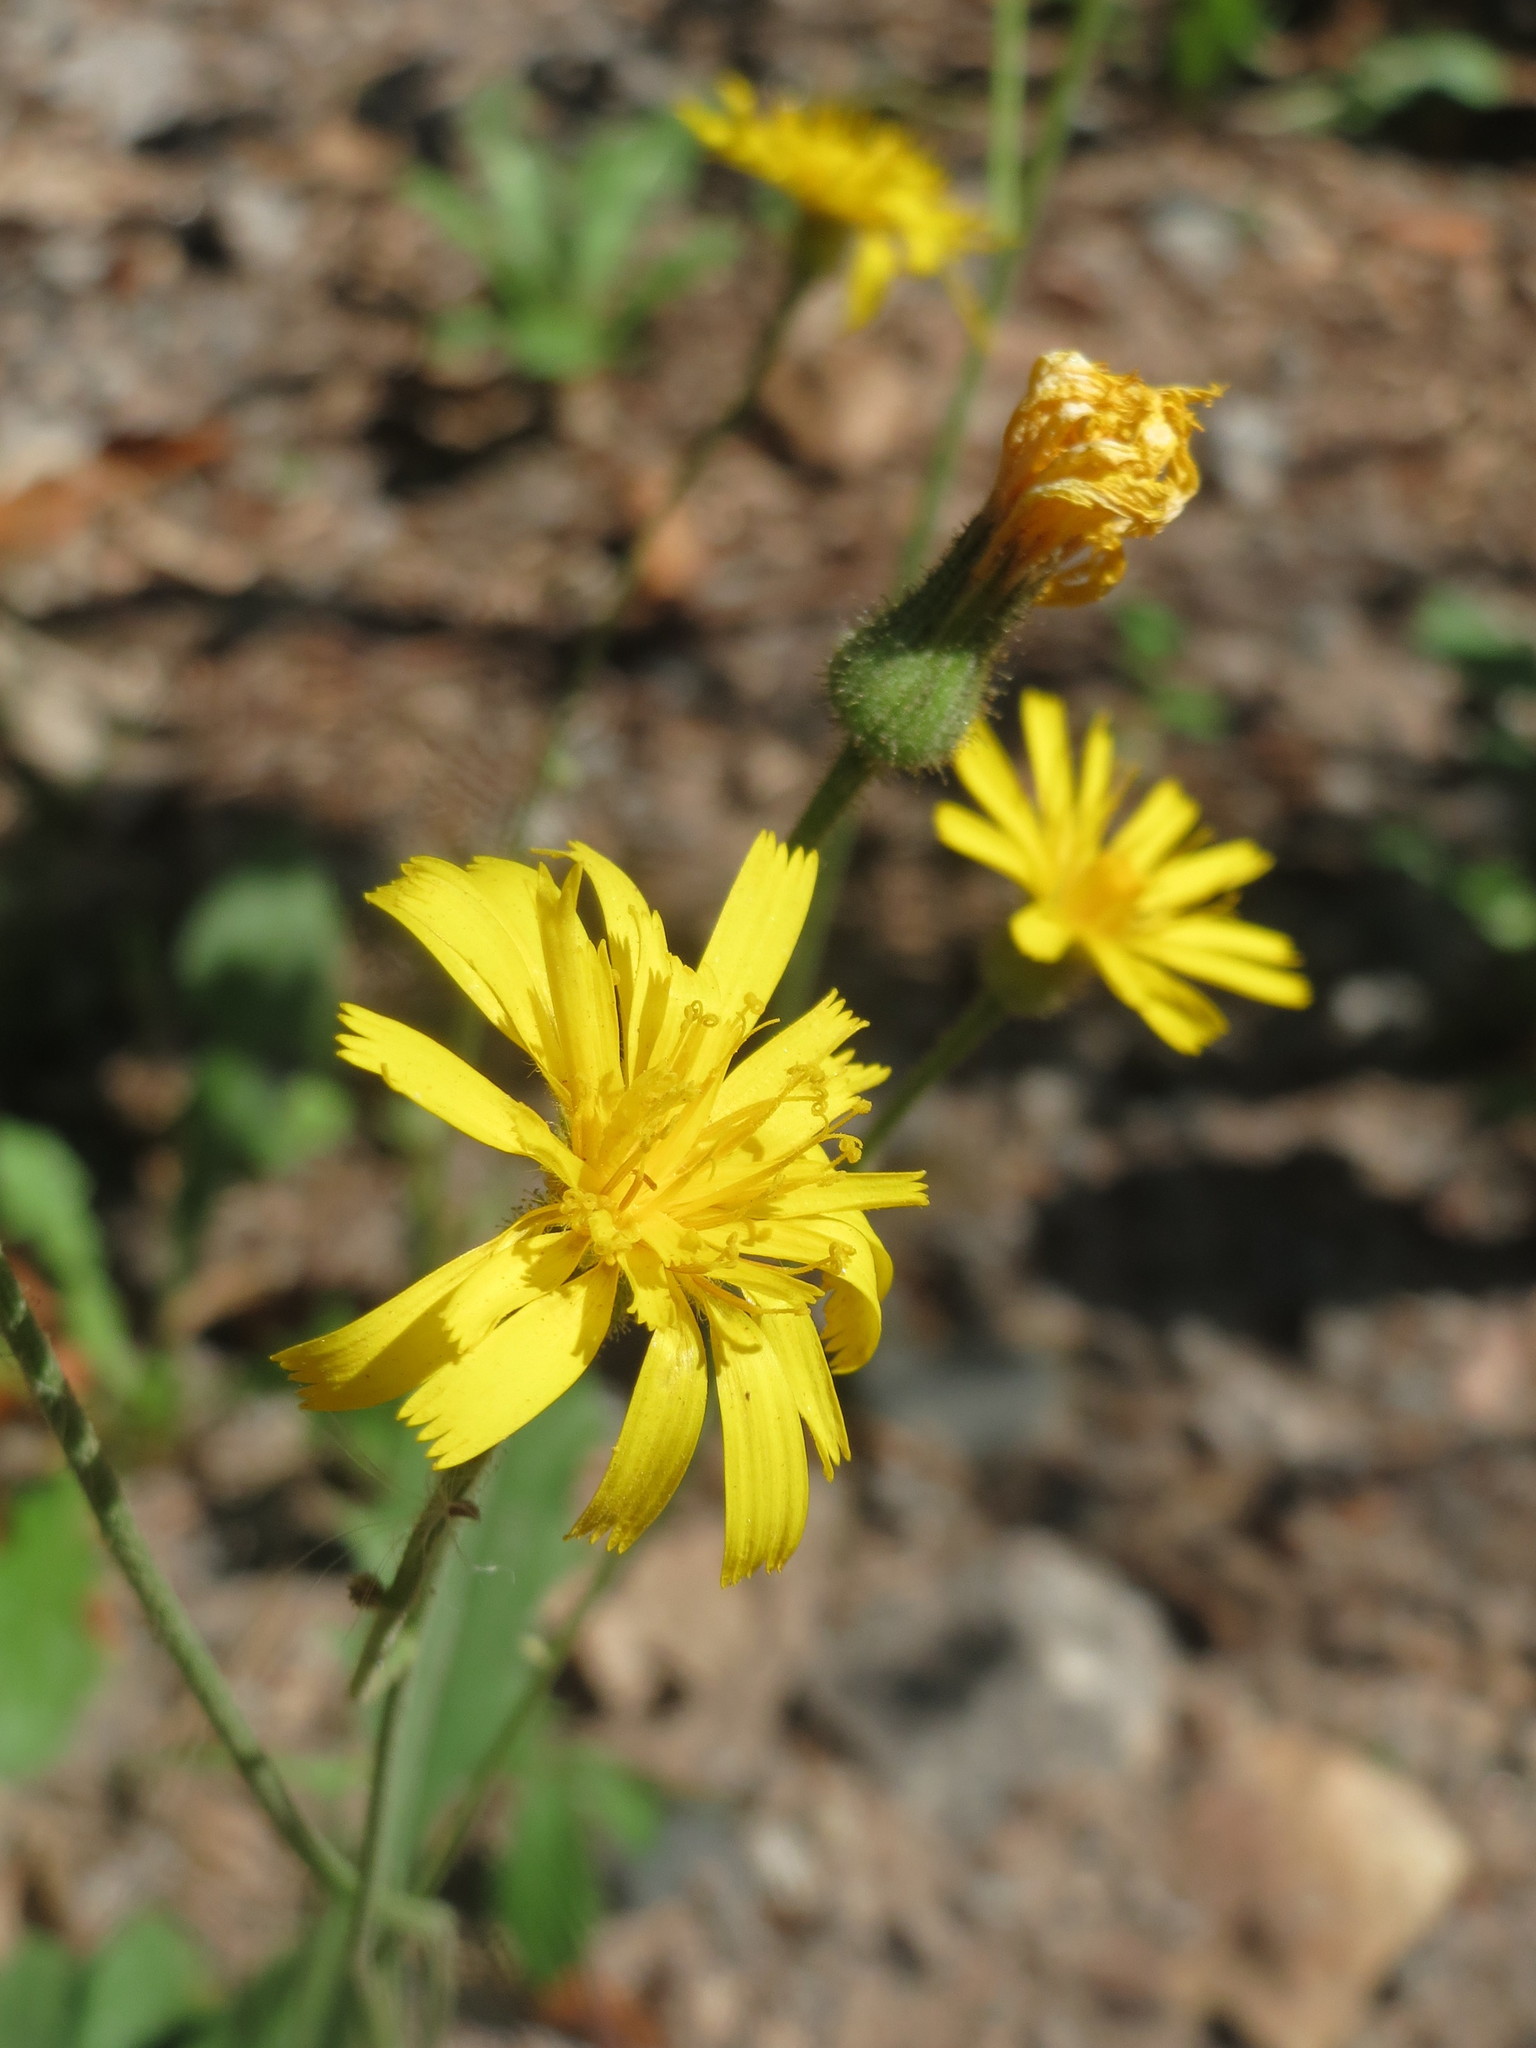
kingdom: Plantae
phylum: Tracheophyta
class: Magnoliopsida
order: Asterales
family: Asteraceae
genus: Hieracium
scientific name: Hieracium murorum
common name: Wall hawkweed
